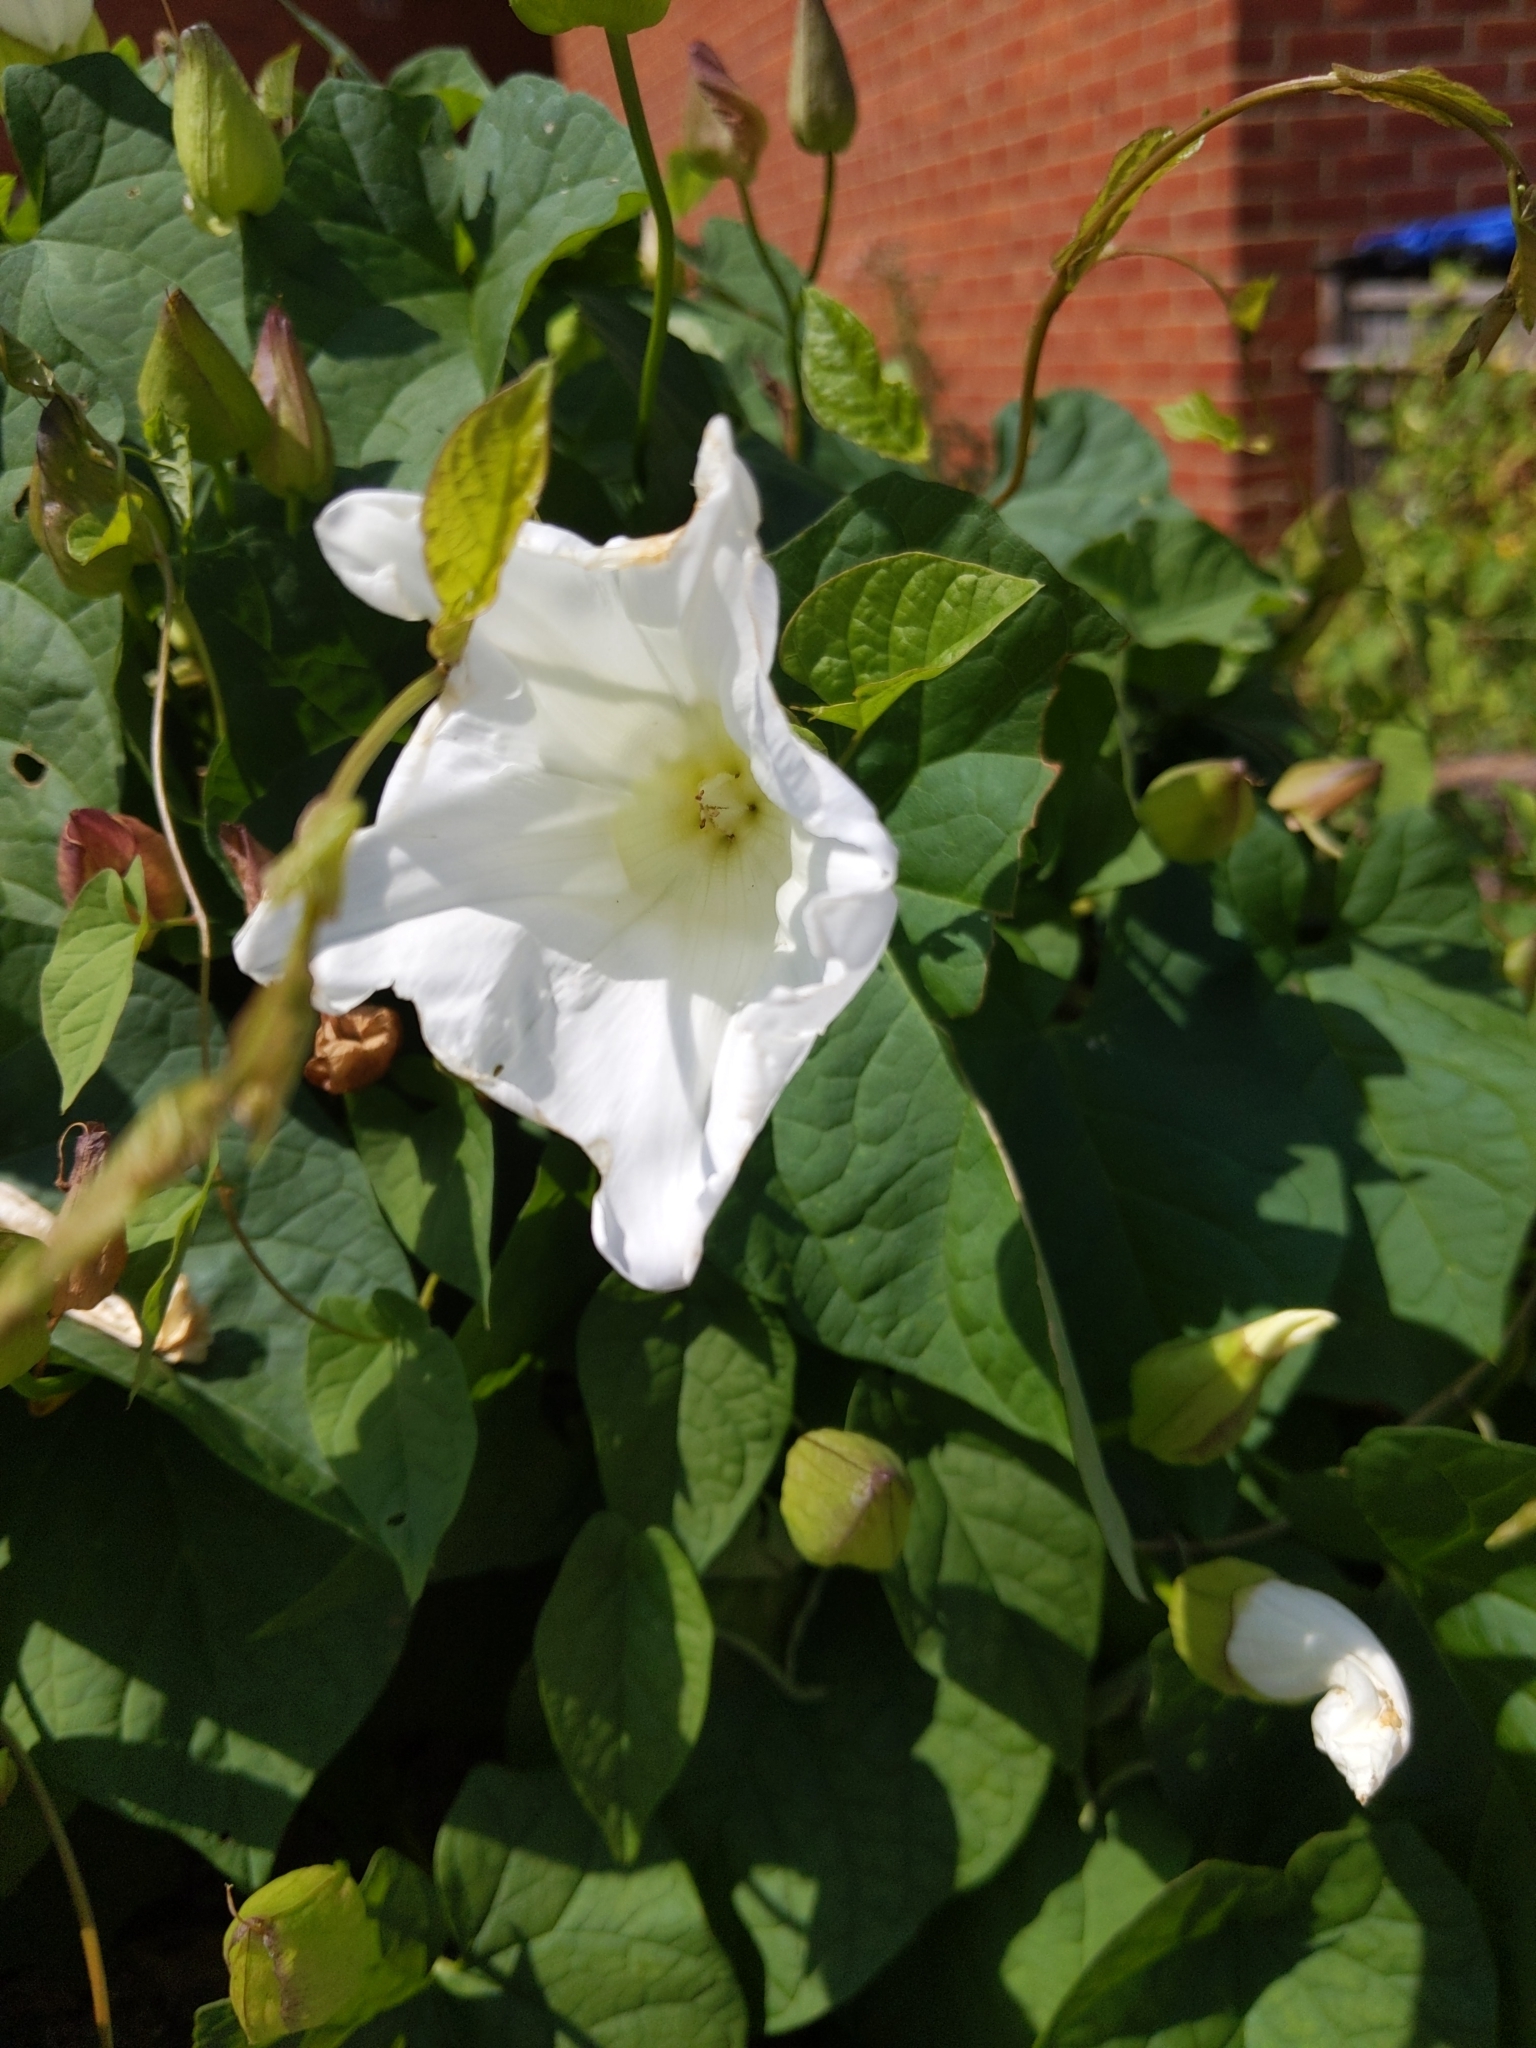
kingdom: Plantae
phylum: Tracheophyta
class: Magnoliopsida
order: Solanales
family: Convolvulaceae
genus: Calystegia
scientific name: Calystegia silvatica
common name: Large bindweed
